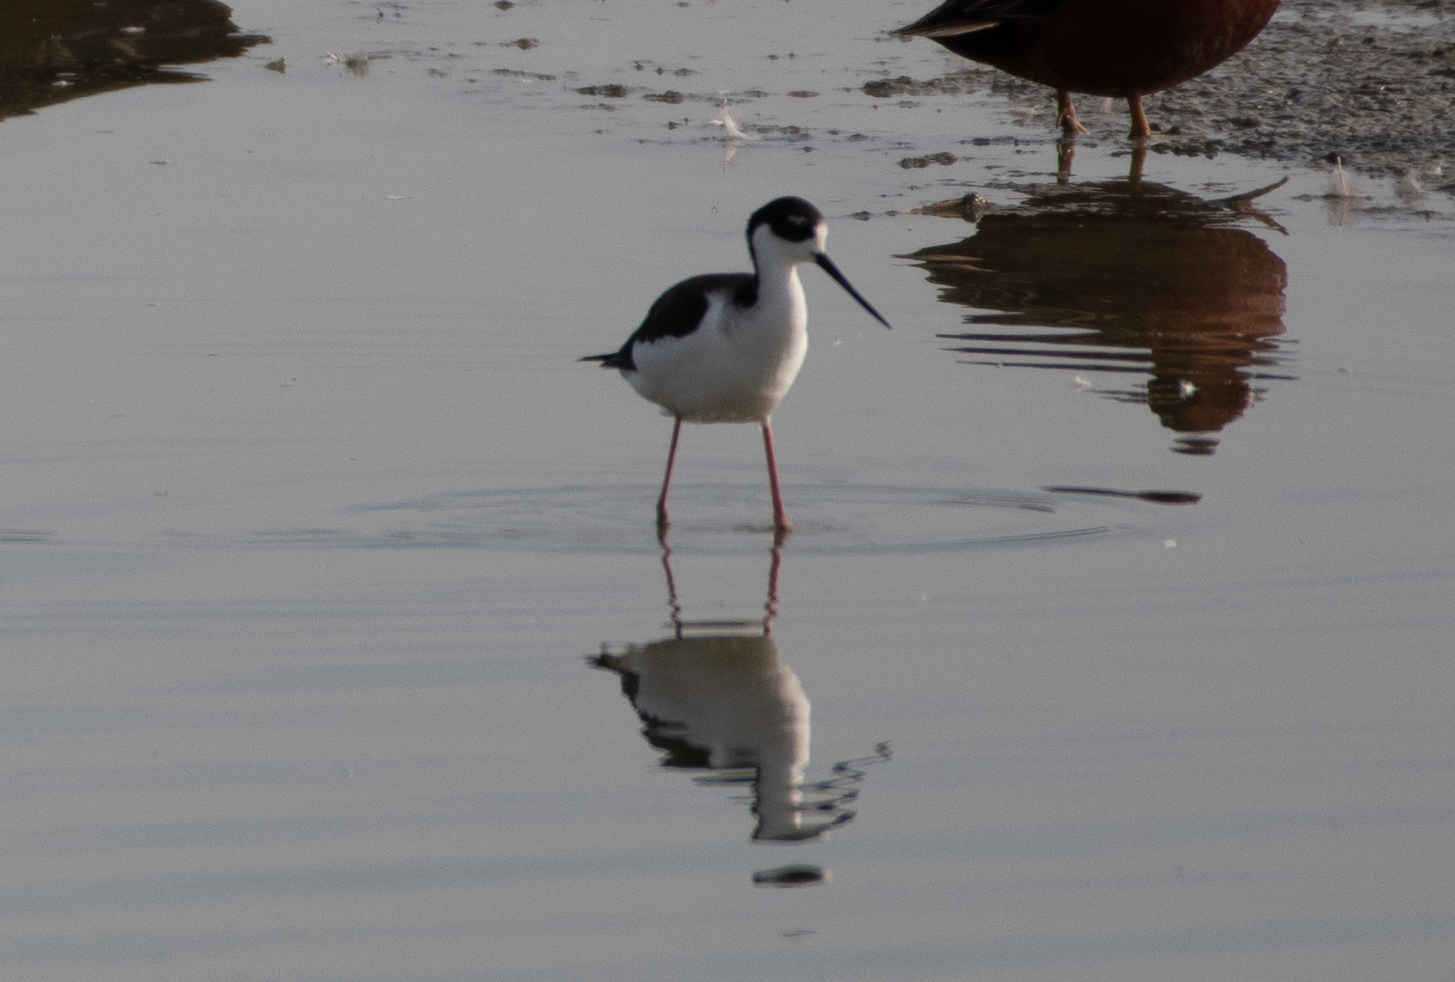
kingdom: Animalia
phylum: Chordata
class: Aves
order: Charadriiformes
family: Recurvirostridae
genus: Himantopus
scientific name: Himantopus mexicanus
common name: Black-necked stilt
